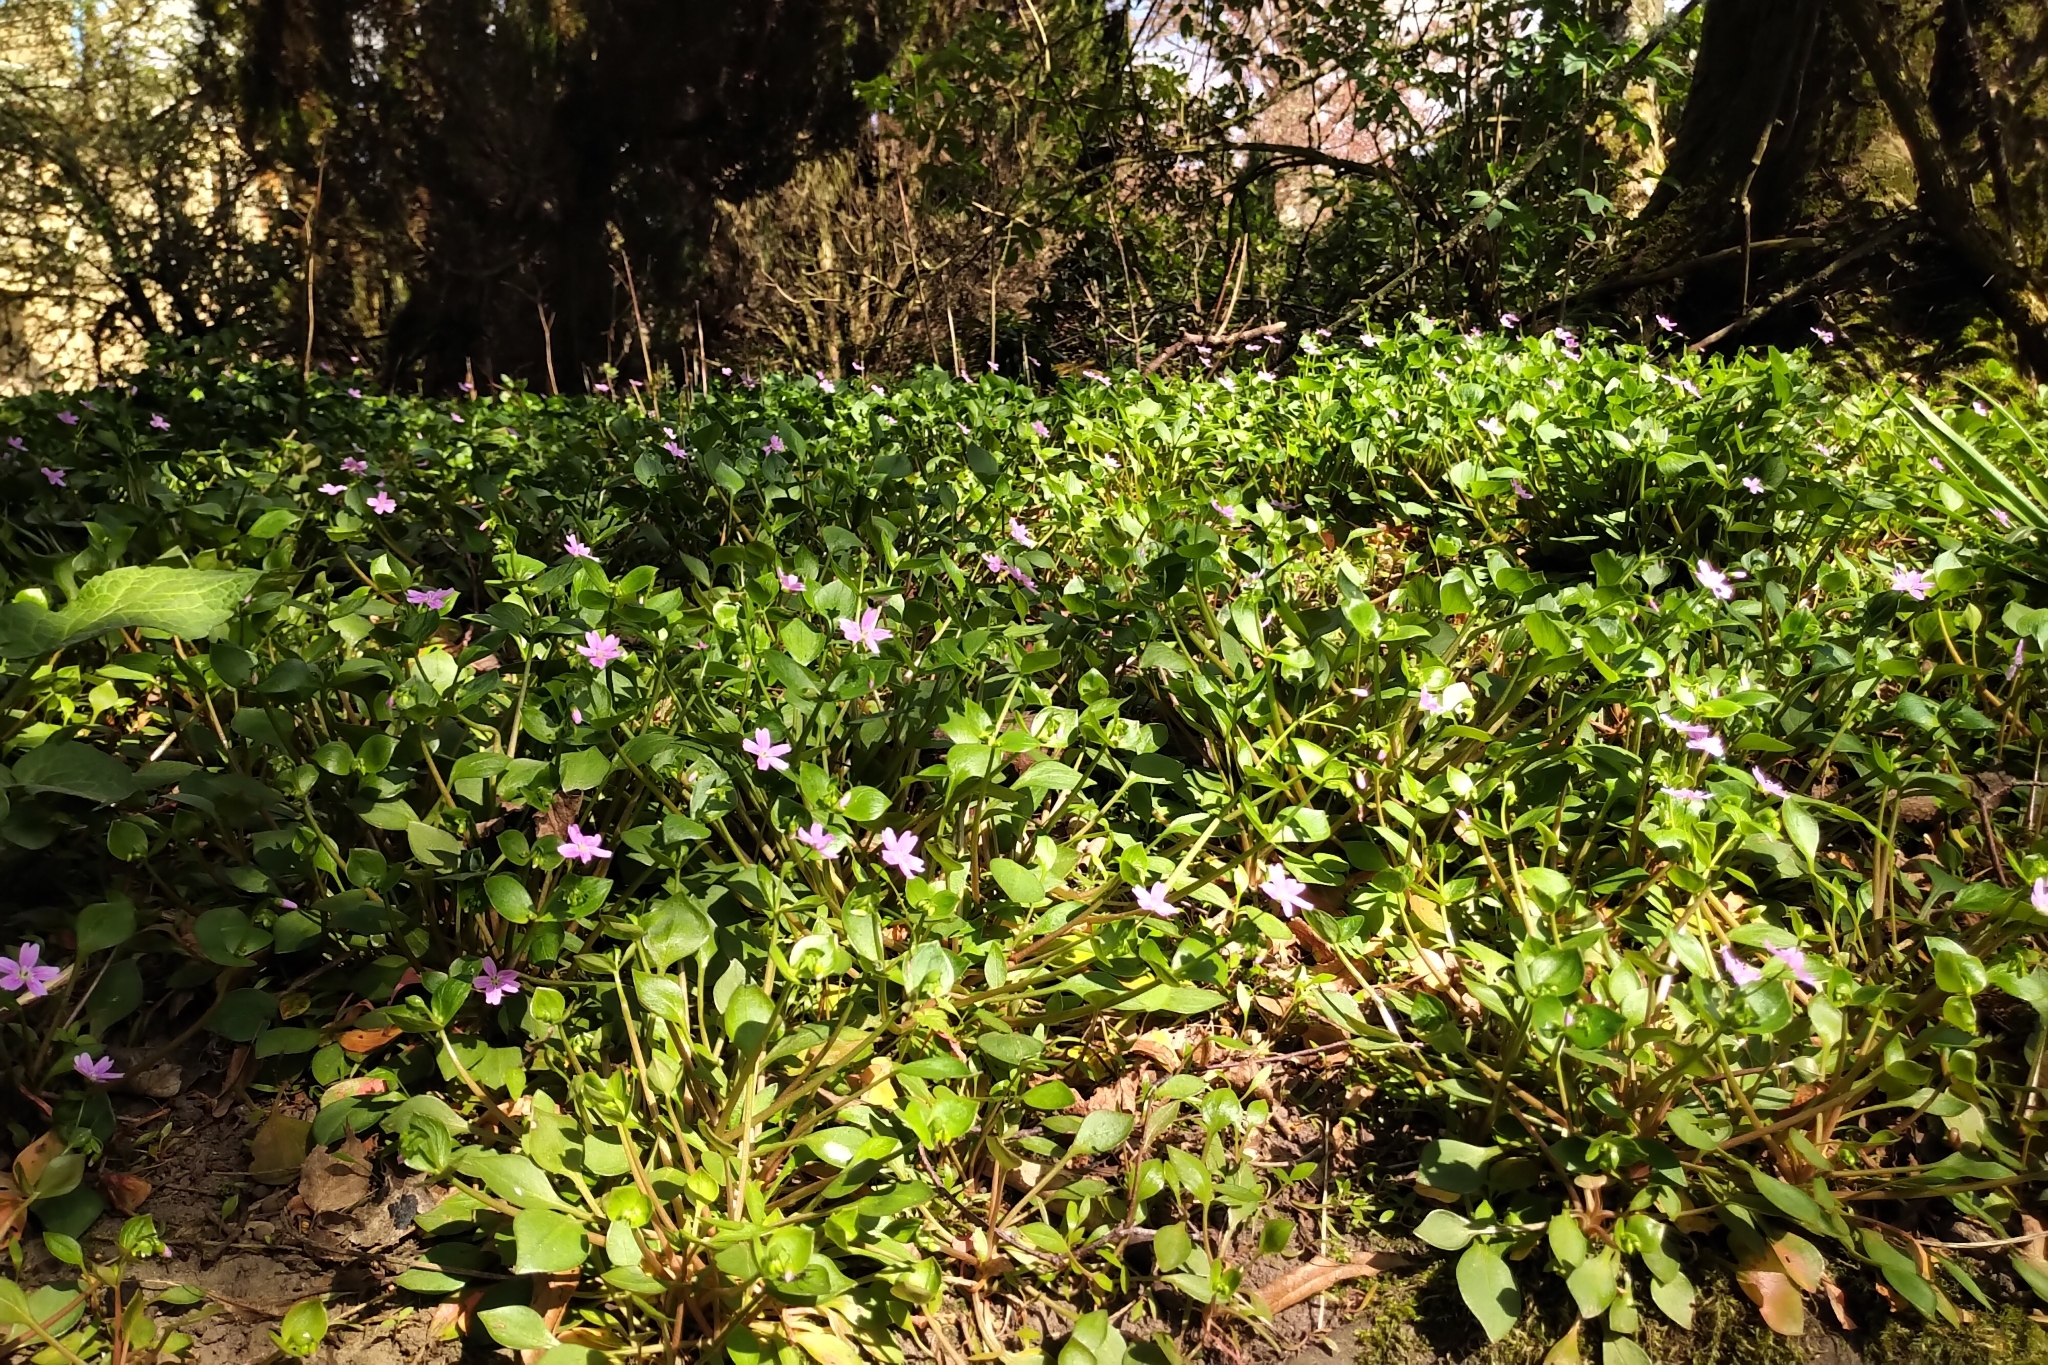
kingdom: Plantae
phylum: Tracheophyta
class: Magnoliopsida
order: Caryophyllales
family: Montiaceae
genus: Claytonia
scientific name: Claytonia sibirica
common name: Pink purslane
